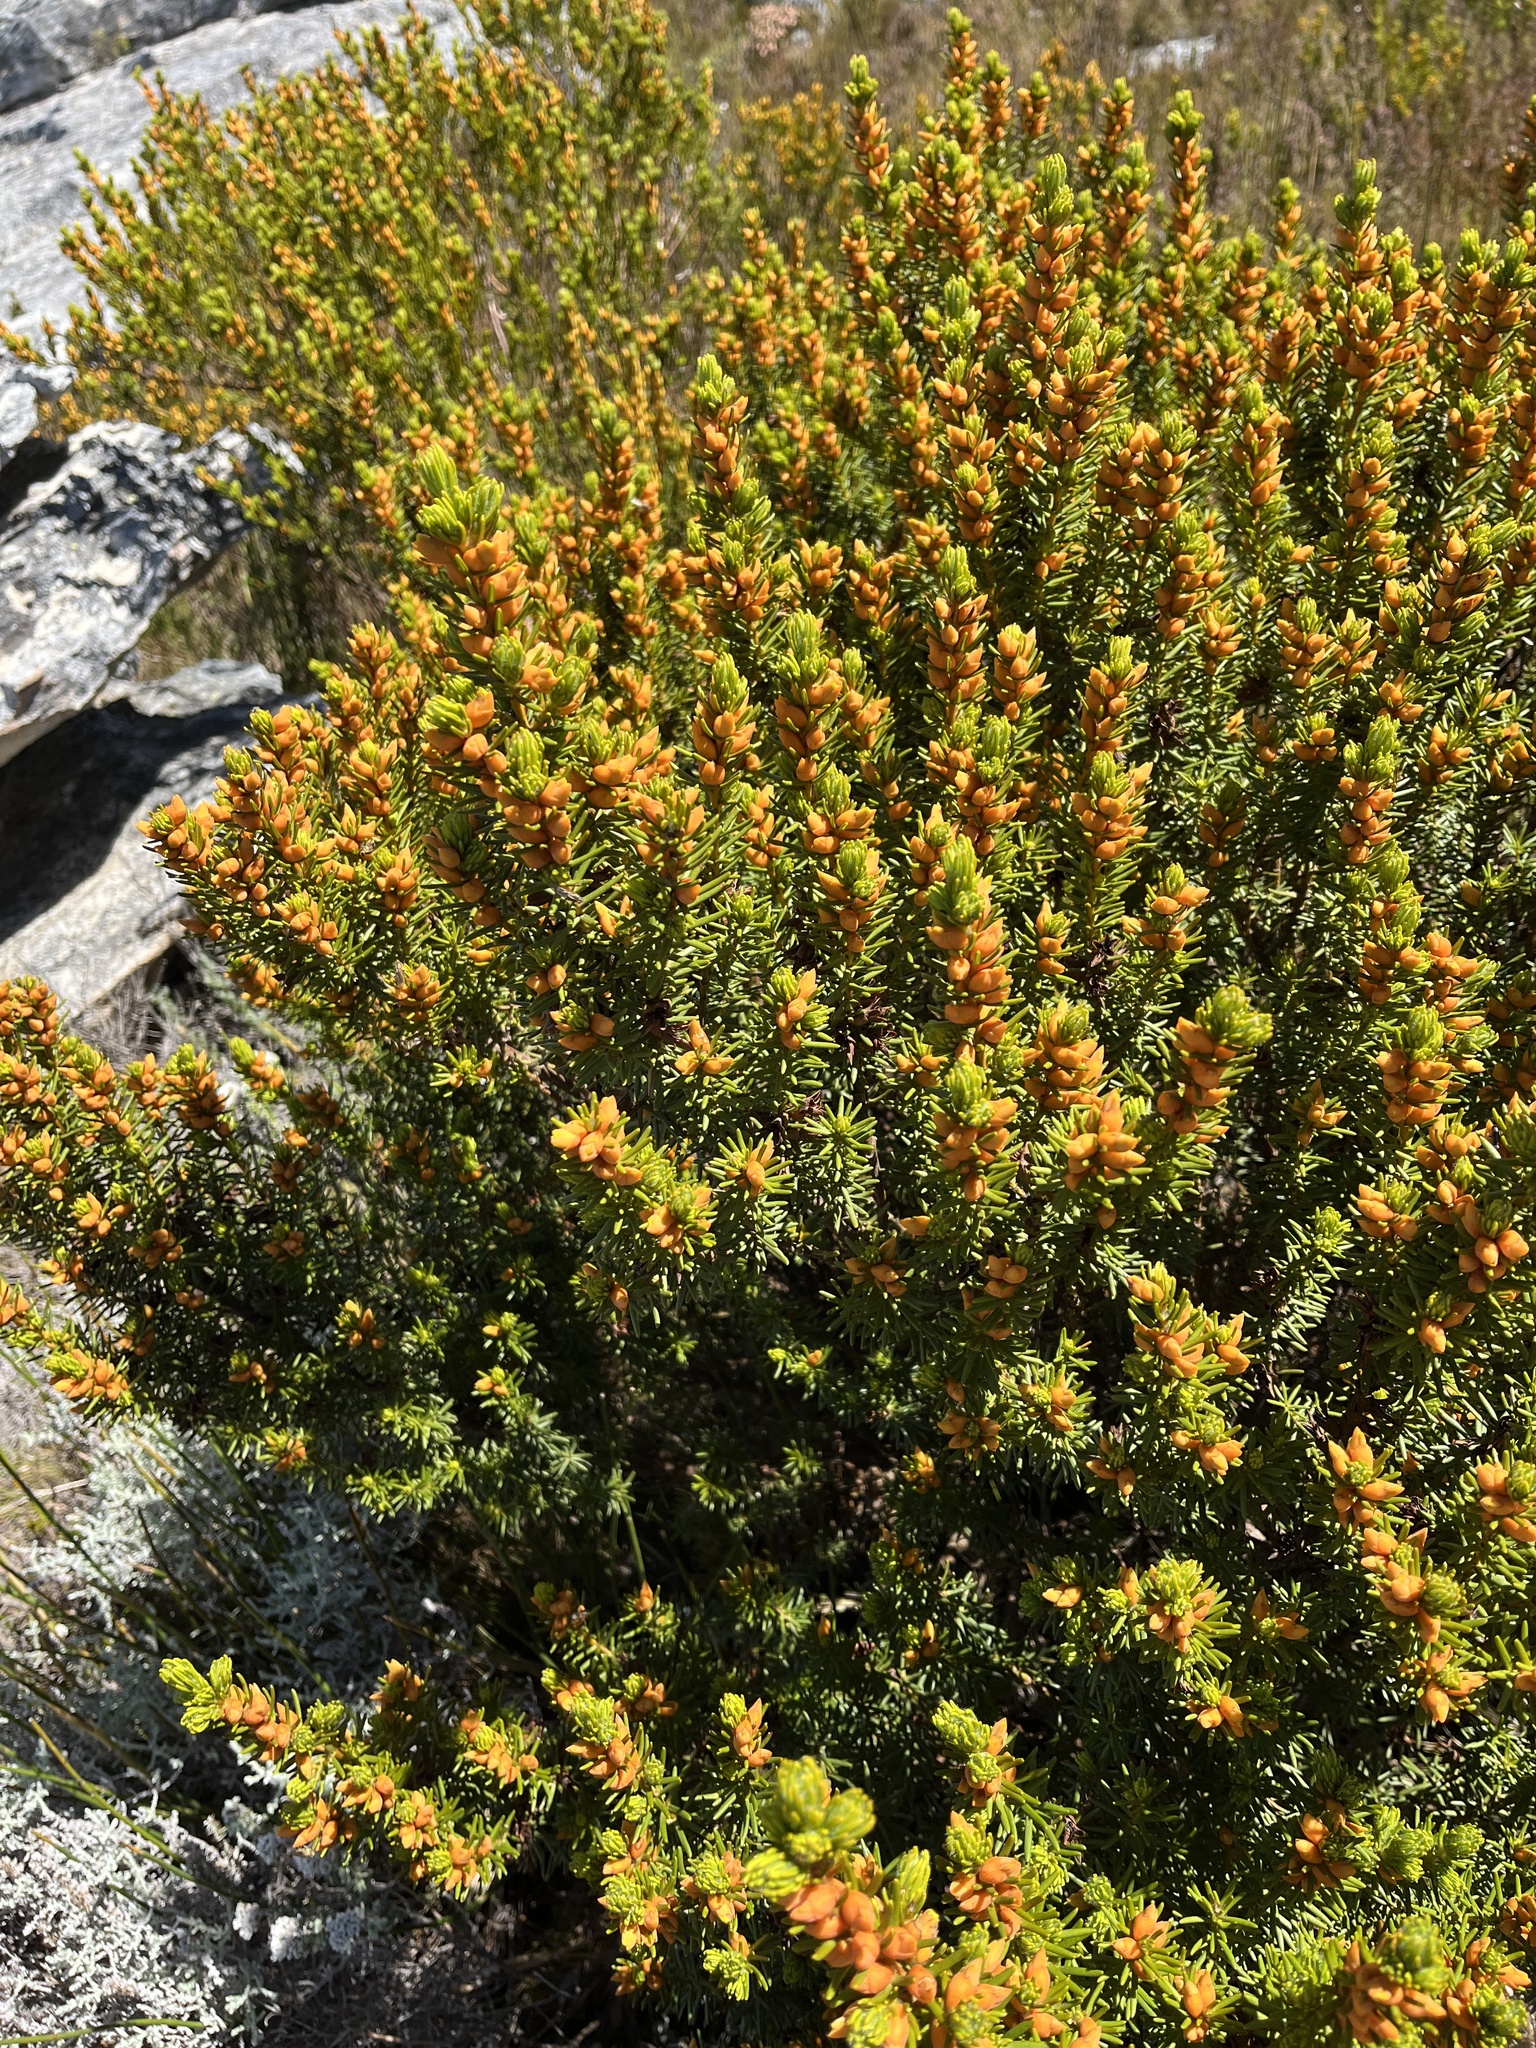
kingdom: Plantae
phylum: Tracheophyta
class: Magnoliopsida
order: Fabales
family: Fabaceae
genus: Cyclopia
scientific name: Cyclopia bowieana
